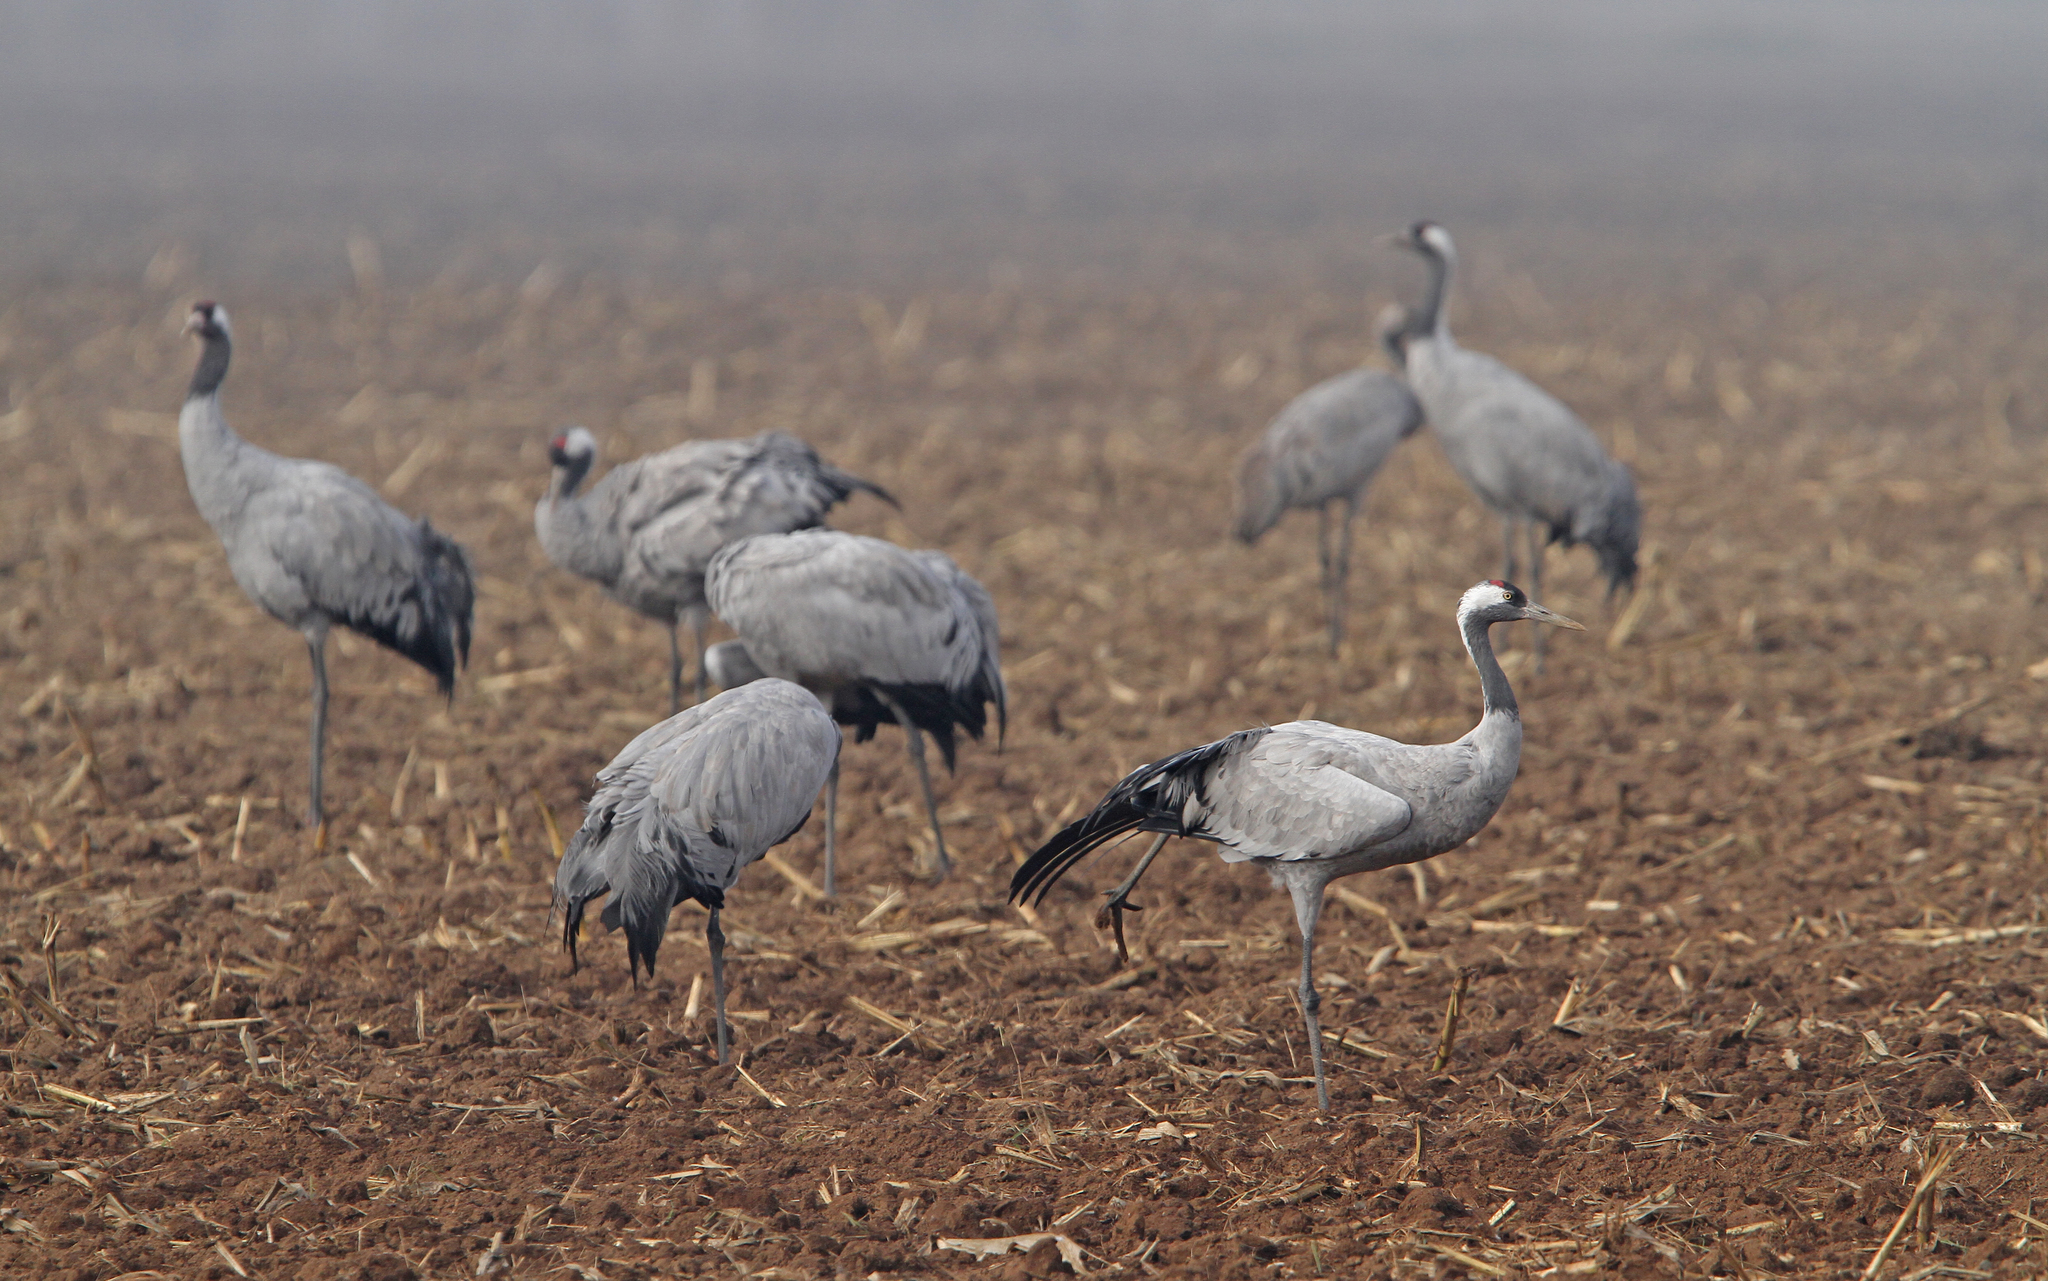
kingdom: Animalia
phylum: Chordata
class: Aves
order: Gruiformes
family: Gruidae
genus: Grus
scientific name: Grus grus
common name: Common crane
